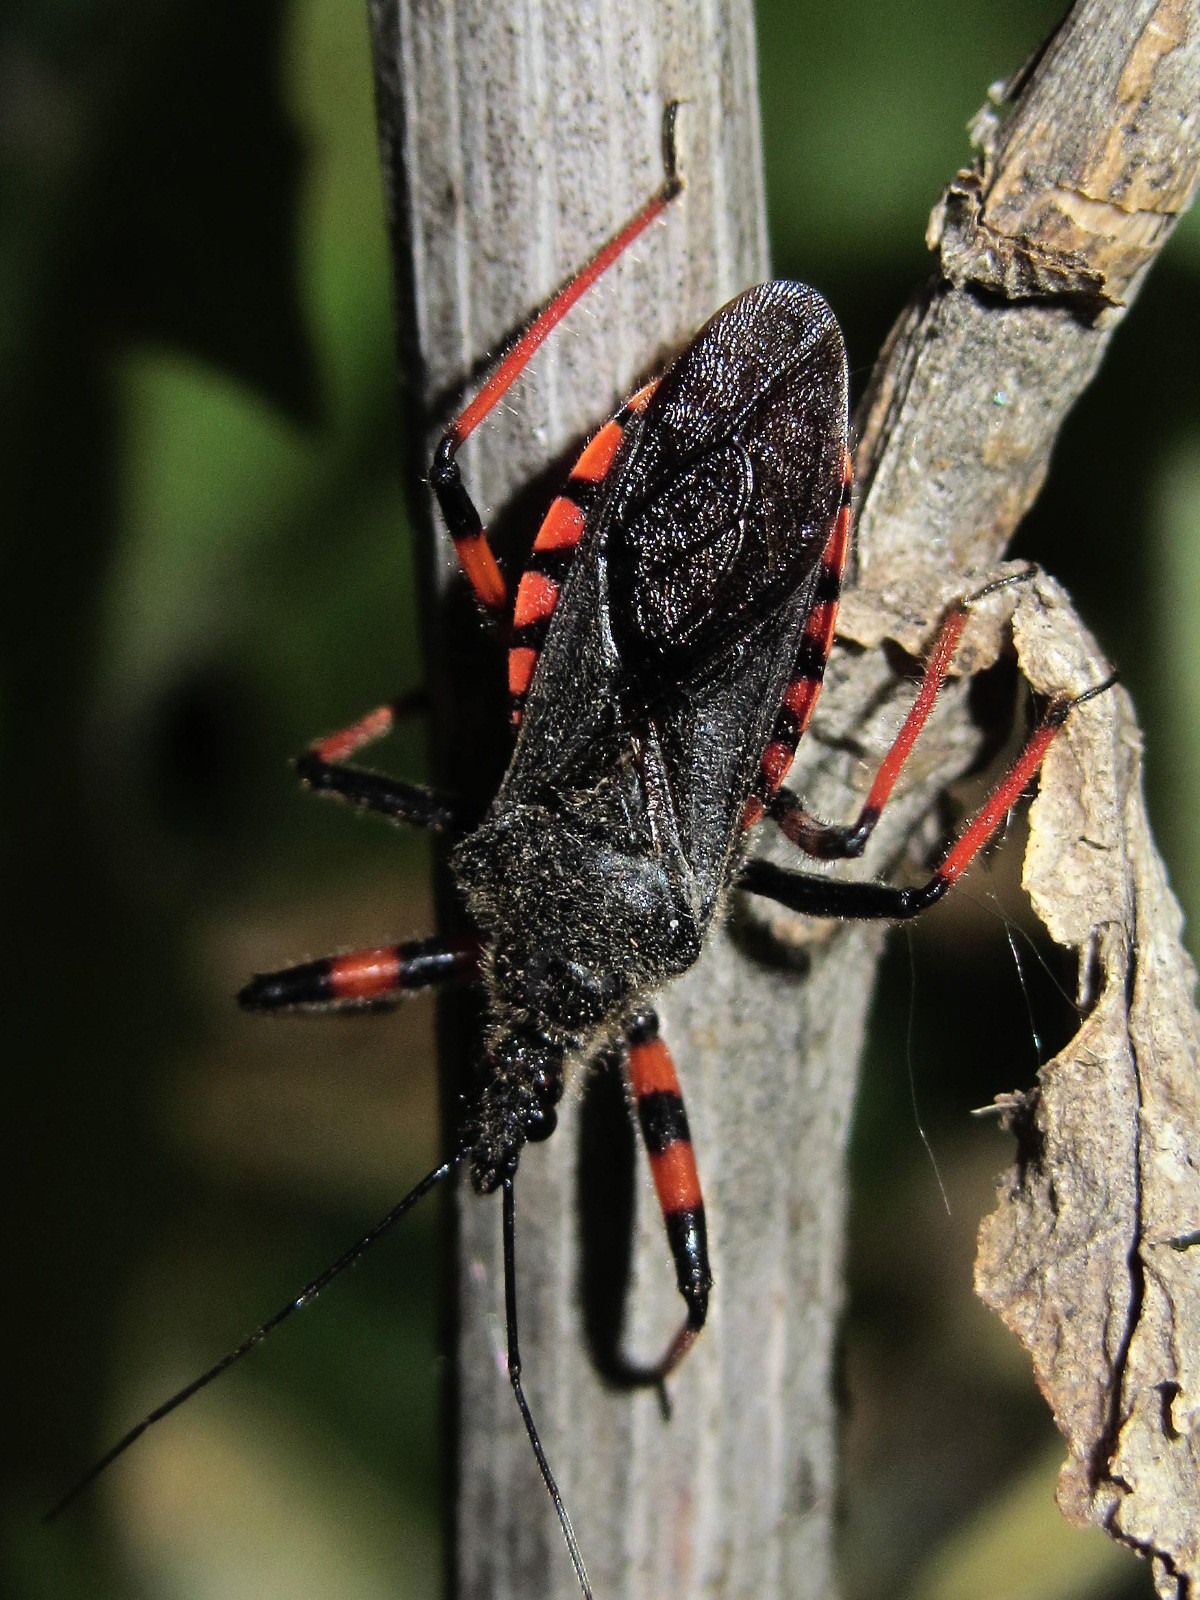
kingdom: Animalia
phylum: Arthropoda
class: Insecta
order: Hemiptera
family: Reduviidae
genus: Rhynocoris
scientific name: Rhynocoris annulatus
